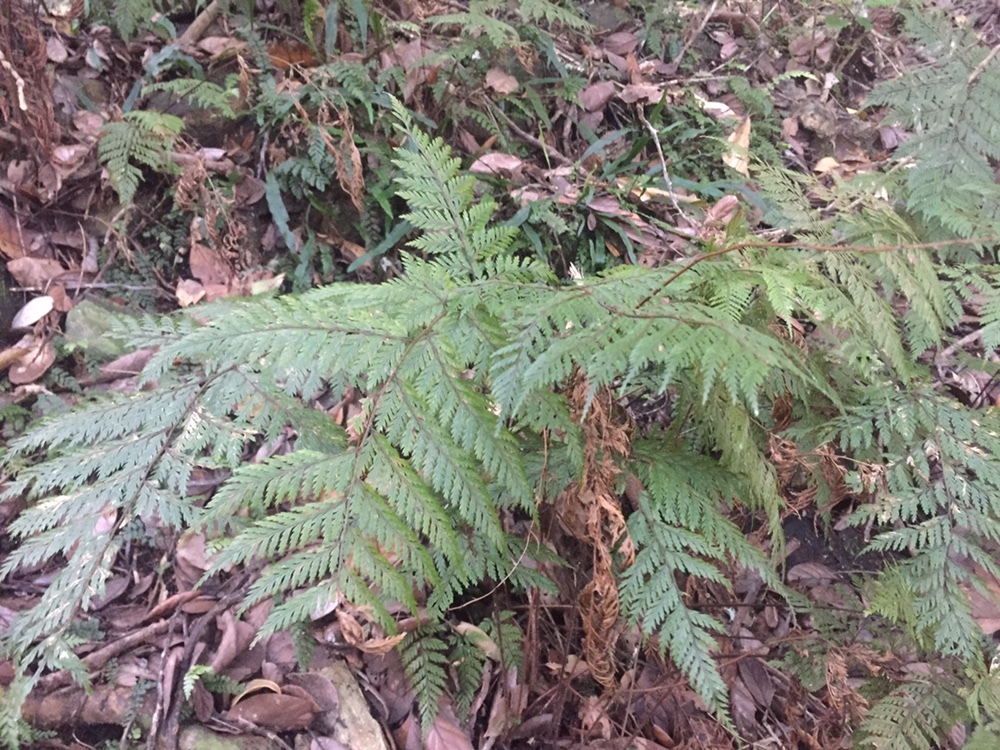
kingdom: Plantae
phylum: Tracheophyta
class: Polypodiopsida
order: Polypodiales
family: Dryopteridaceae
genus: Lastreopsis
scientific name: Lastreopsis hispida
